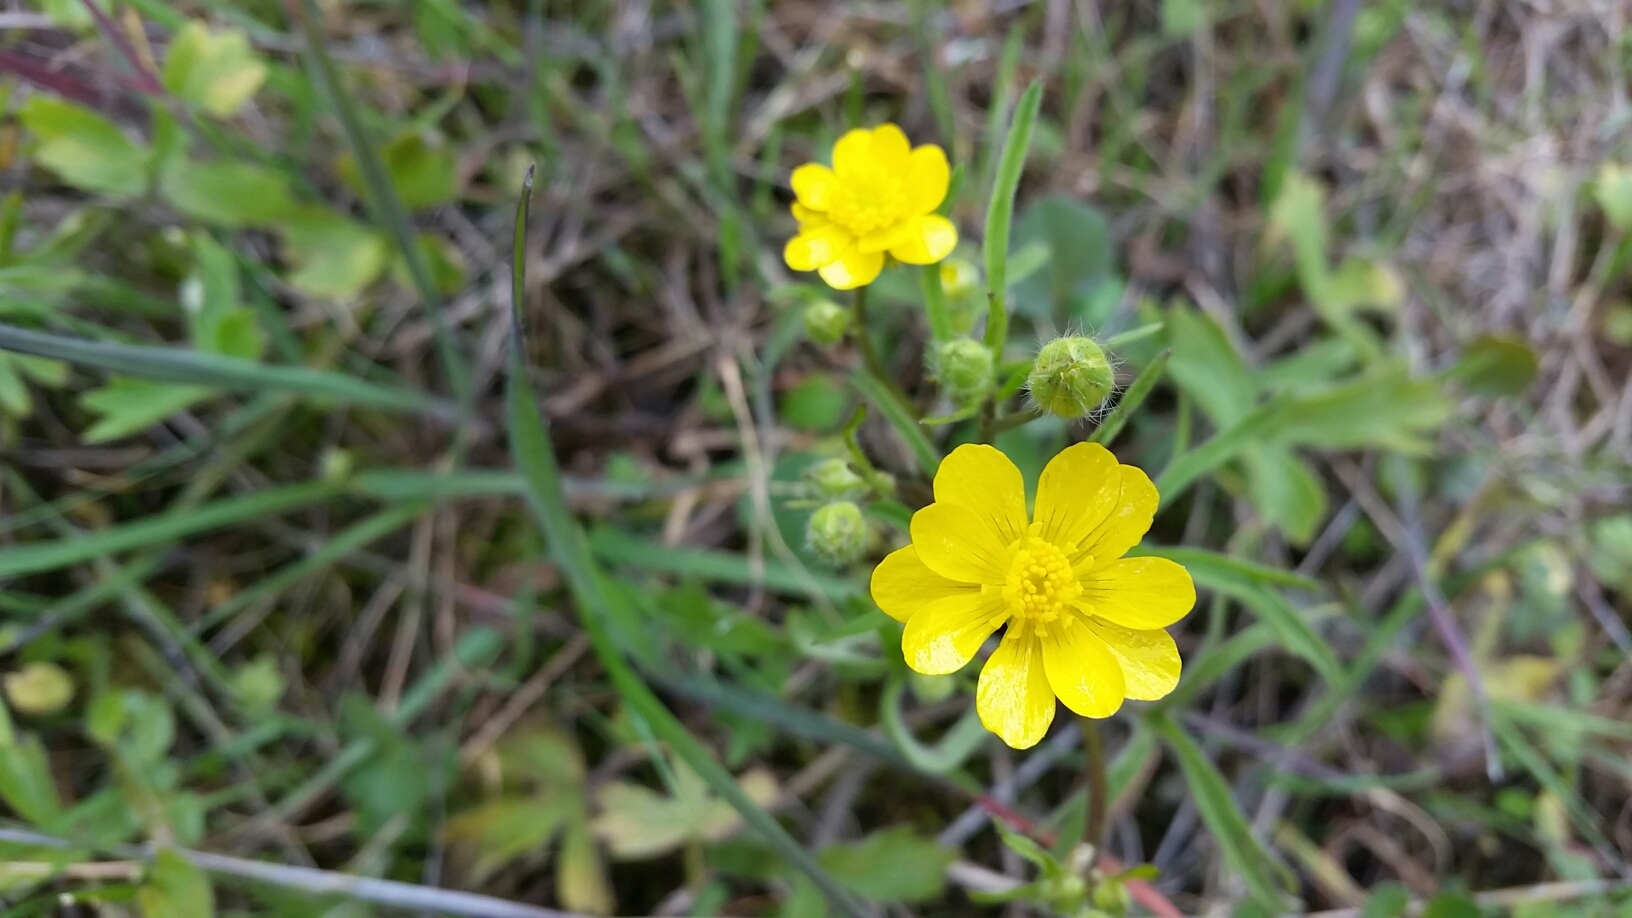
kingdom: Plantae
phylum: Tracheophyta
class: Magnoliopsida
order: Ranunculales
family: Ranunculaceae
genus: Ranunculus
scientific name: Ranunculus californicus
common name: California buttercup
